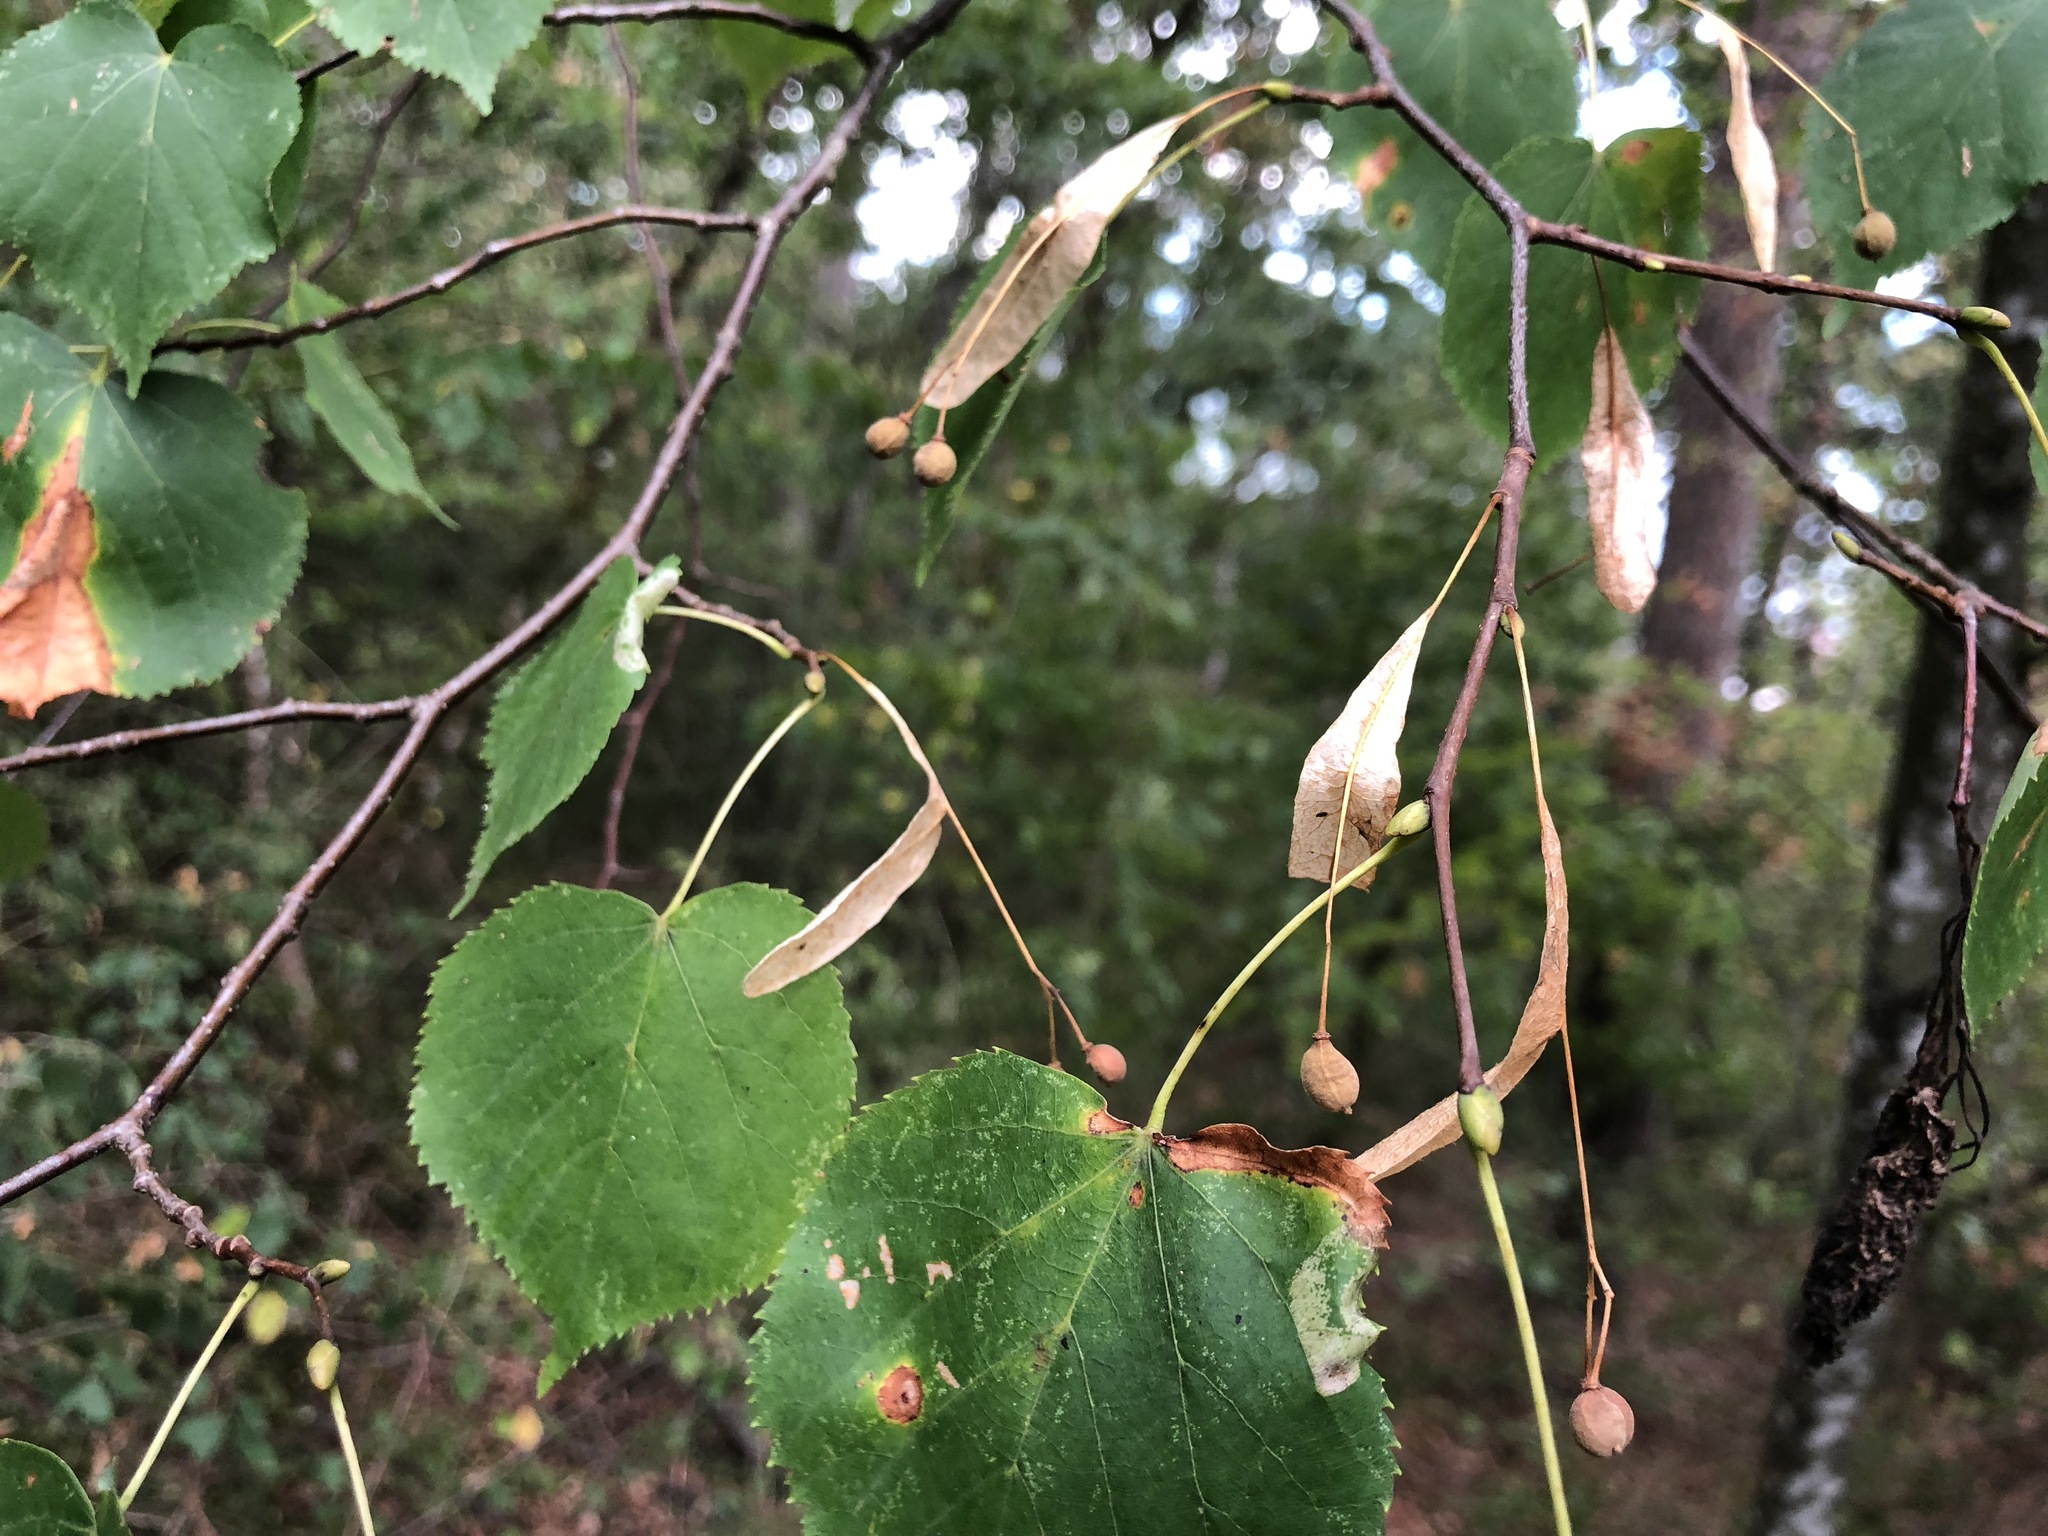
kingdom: Plantae
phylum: Tracheophyta
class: Magnoliopsida
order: Malvales
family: Malvaceae
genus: Tilia
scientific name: Tilia cordata
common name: Small-leaved lime
